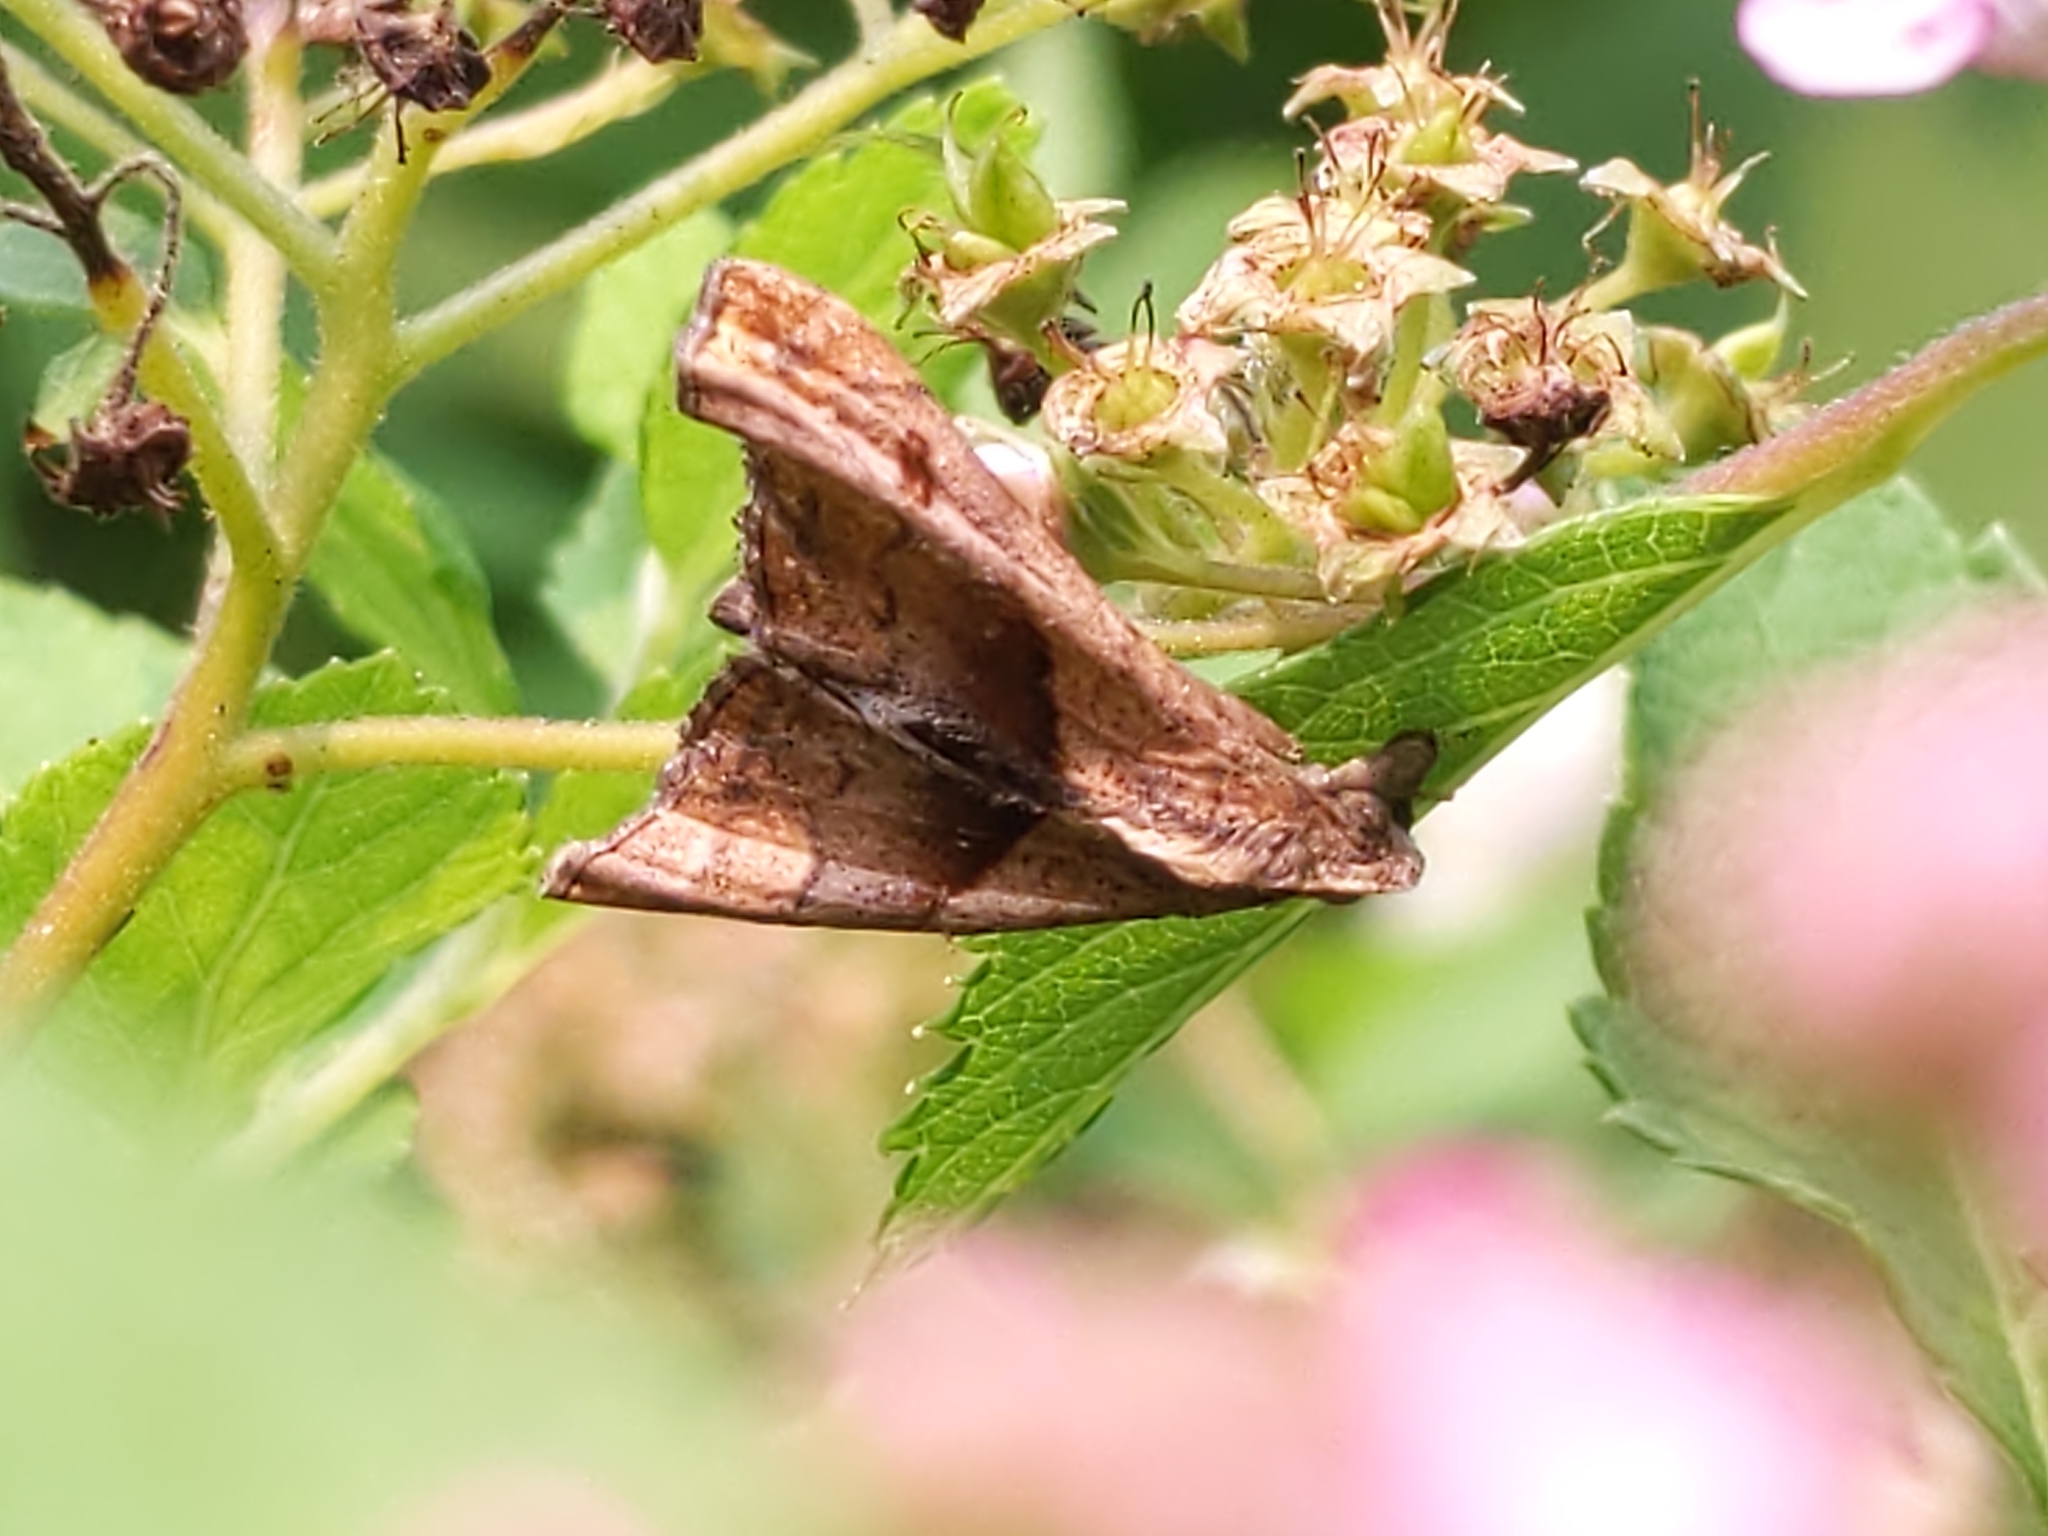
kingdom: Animalia
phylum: Arthropoda
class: Insecta
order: Lepidoptera
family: Erebidae
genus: Palthis
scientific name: Palthis angulalis
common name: Dark-spotted palthis moth
